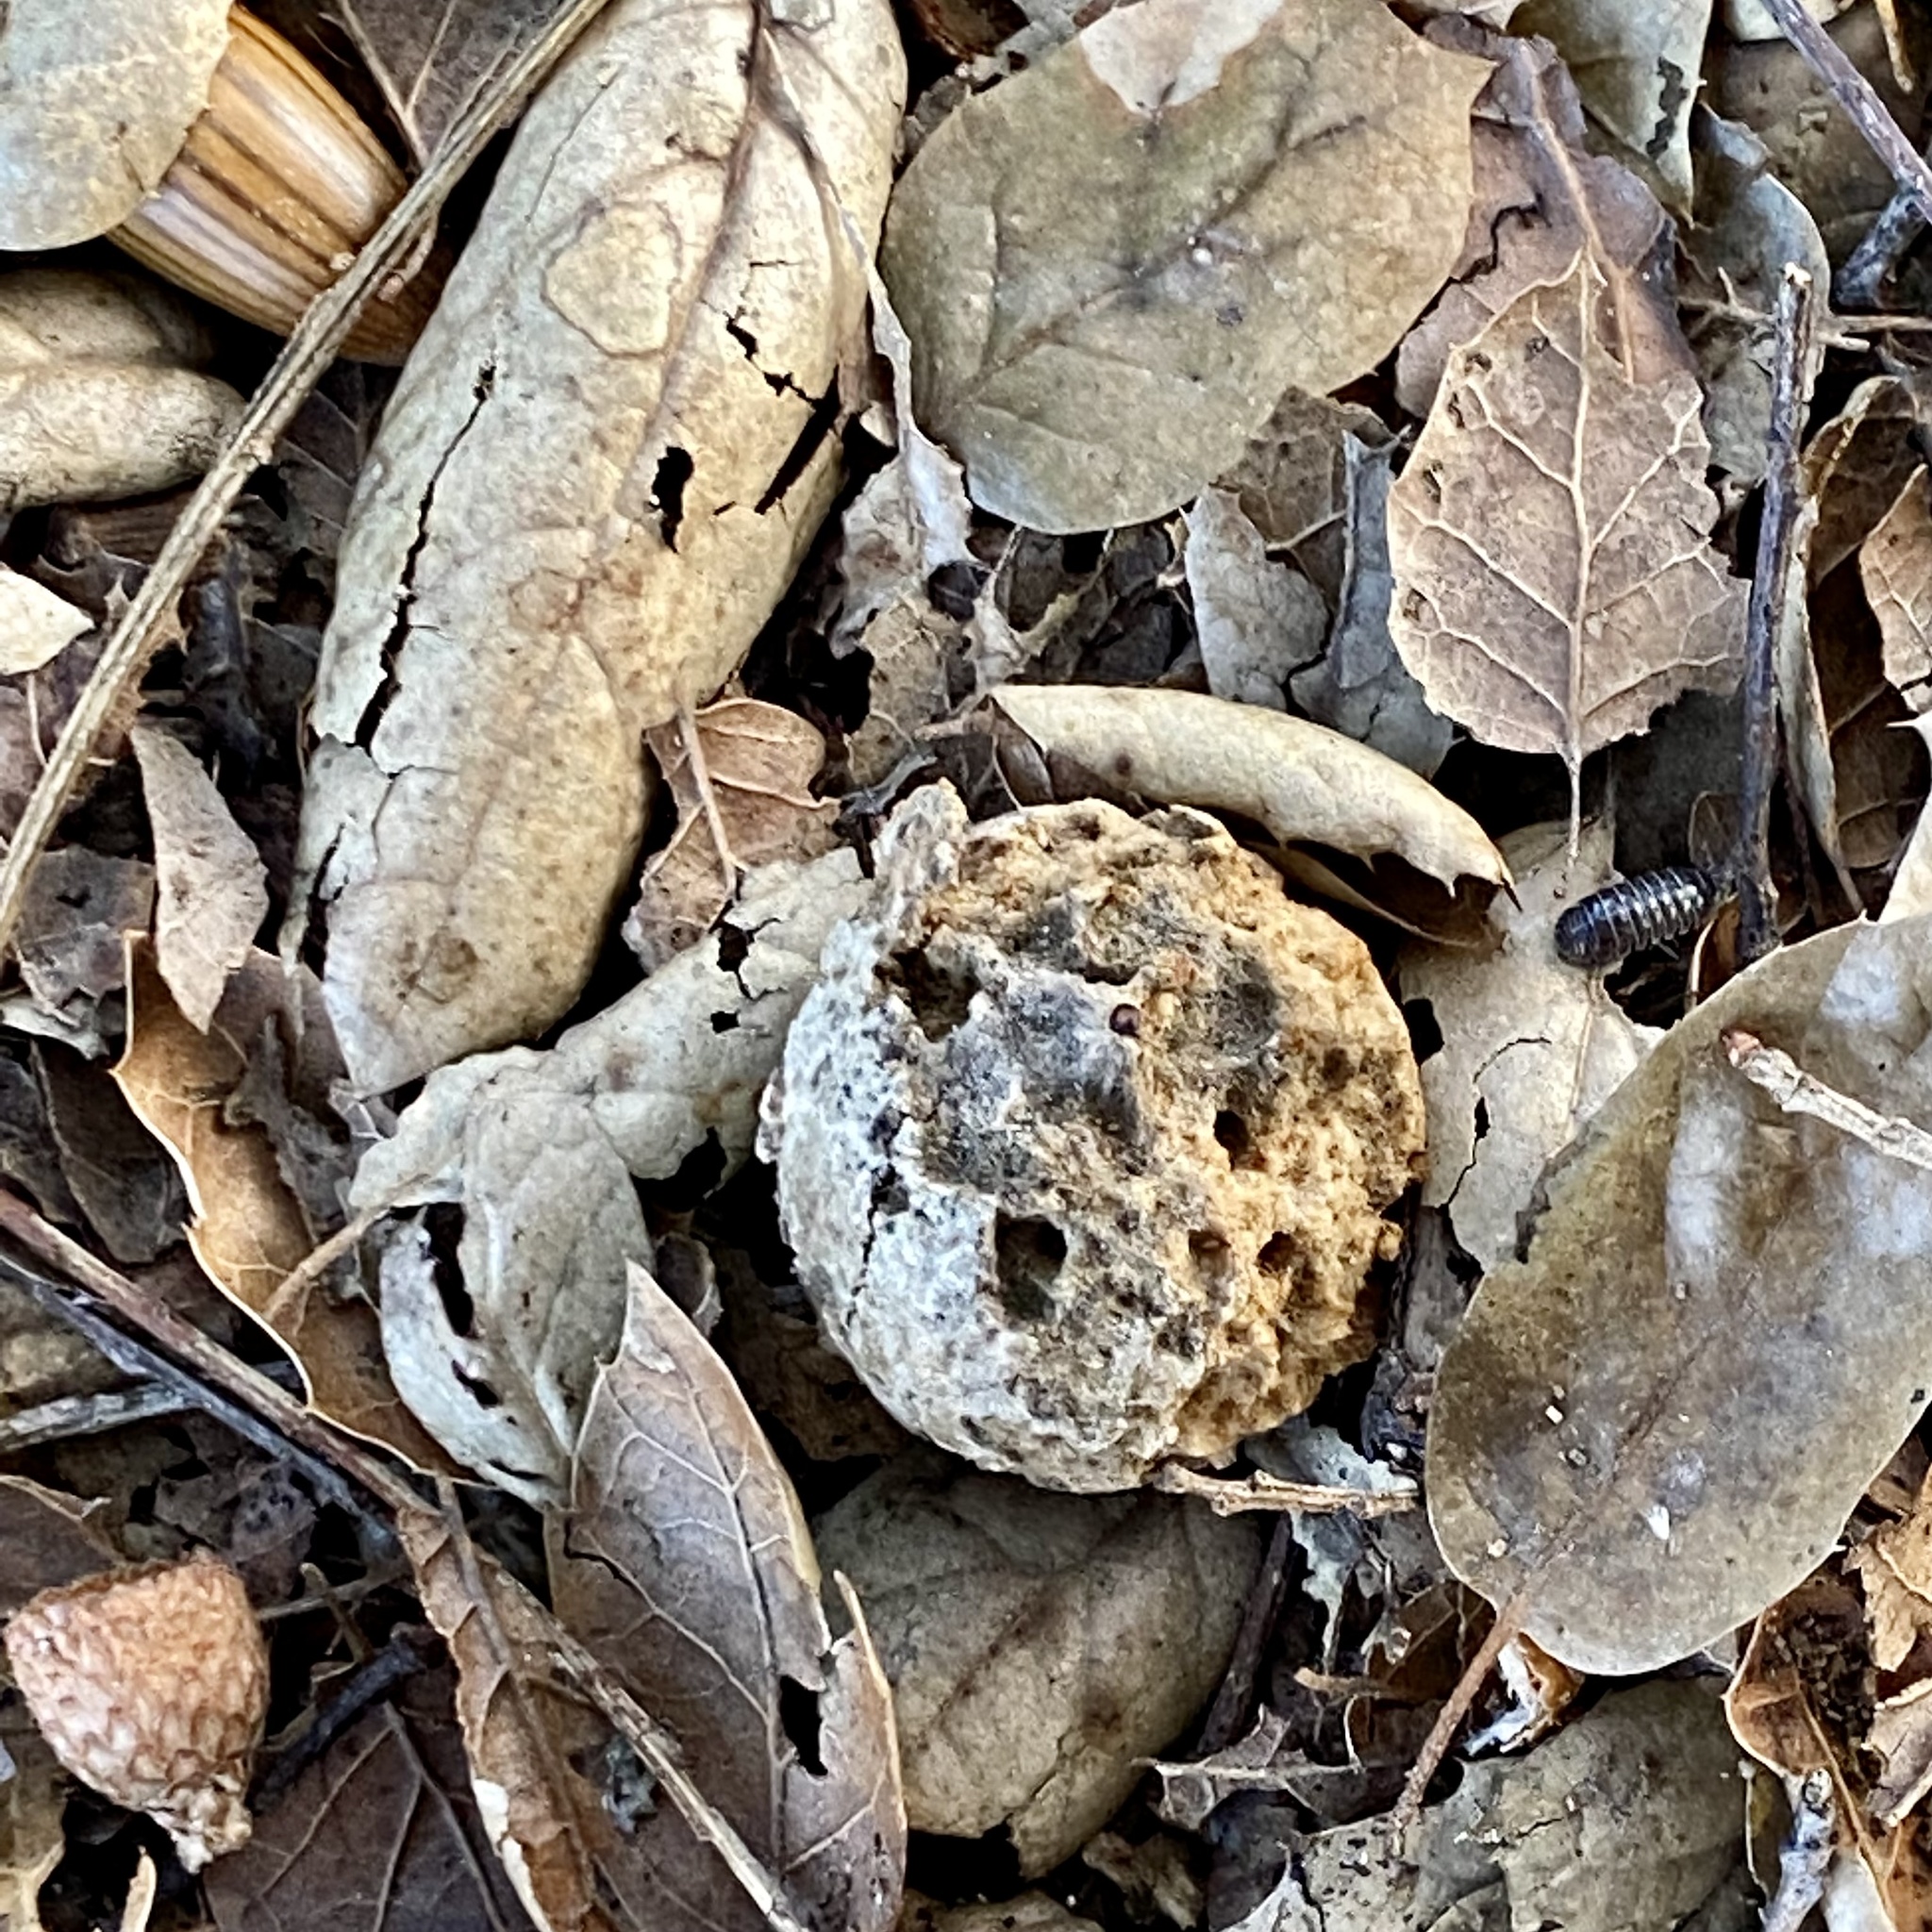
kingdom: Animalia
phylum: Arthropoda
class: Insecta
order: Hymenoptera
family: Cynipidae
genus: Amphibolips
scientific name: Amphibolips quercuspomiformis
